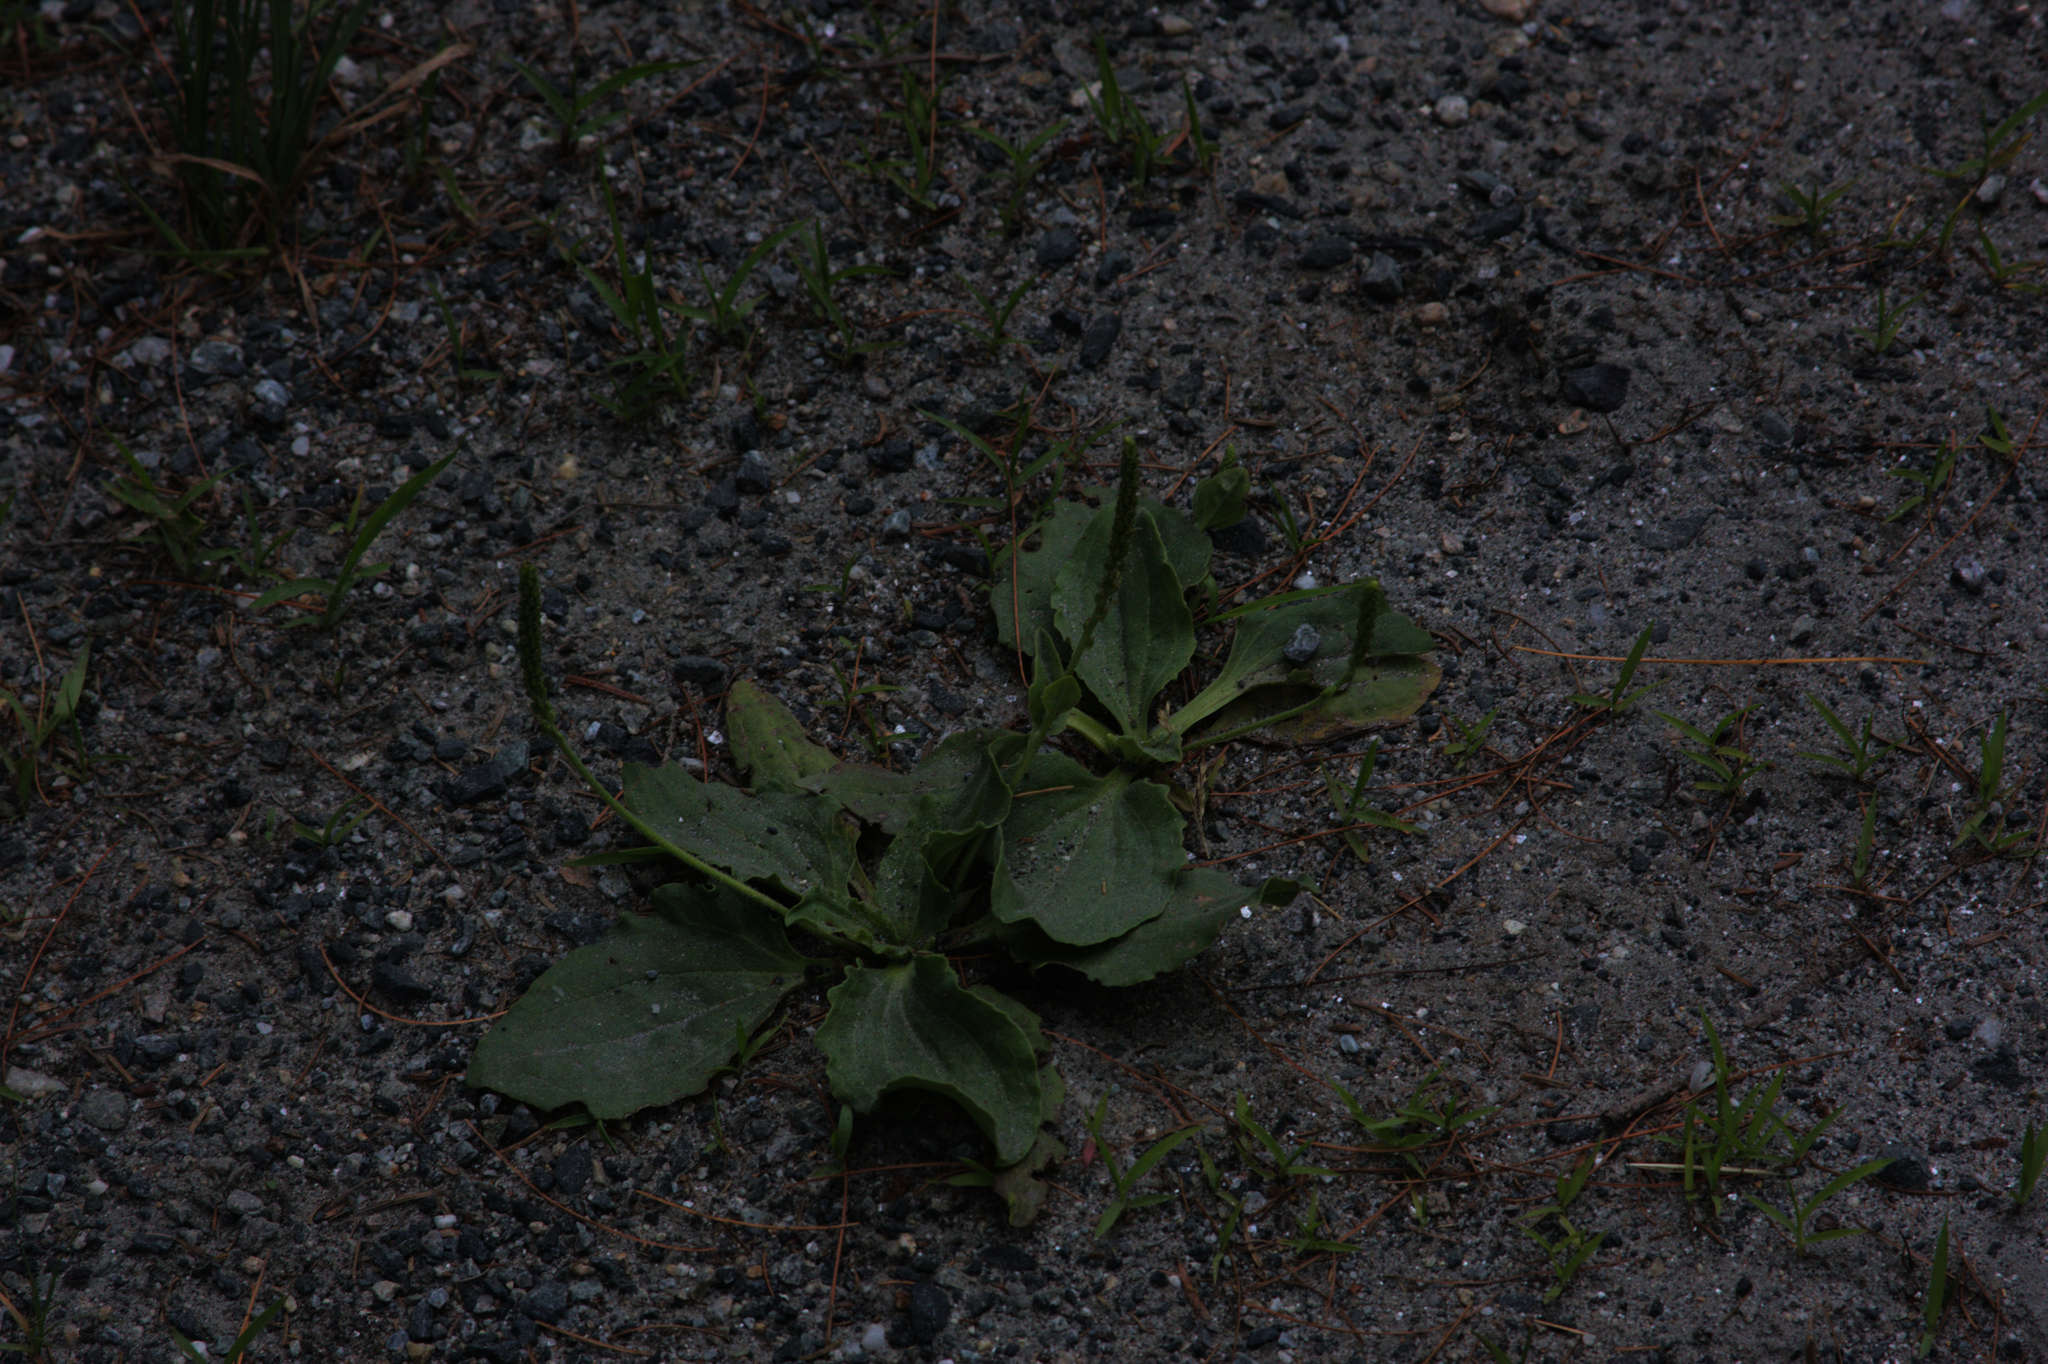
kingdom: Plantae
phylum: Tracheophyta
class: Magnoliopsida
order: Lamiales
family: Plantaginaceae
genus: Plantago
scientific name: Plantago major
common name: Common plantain
